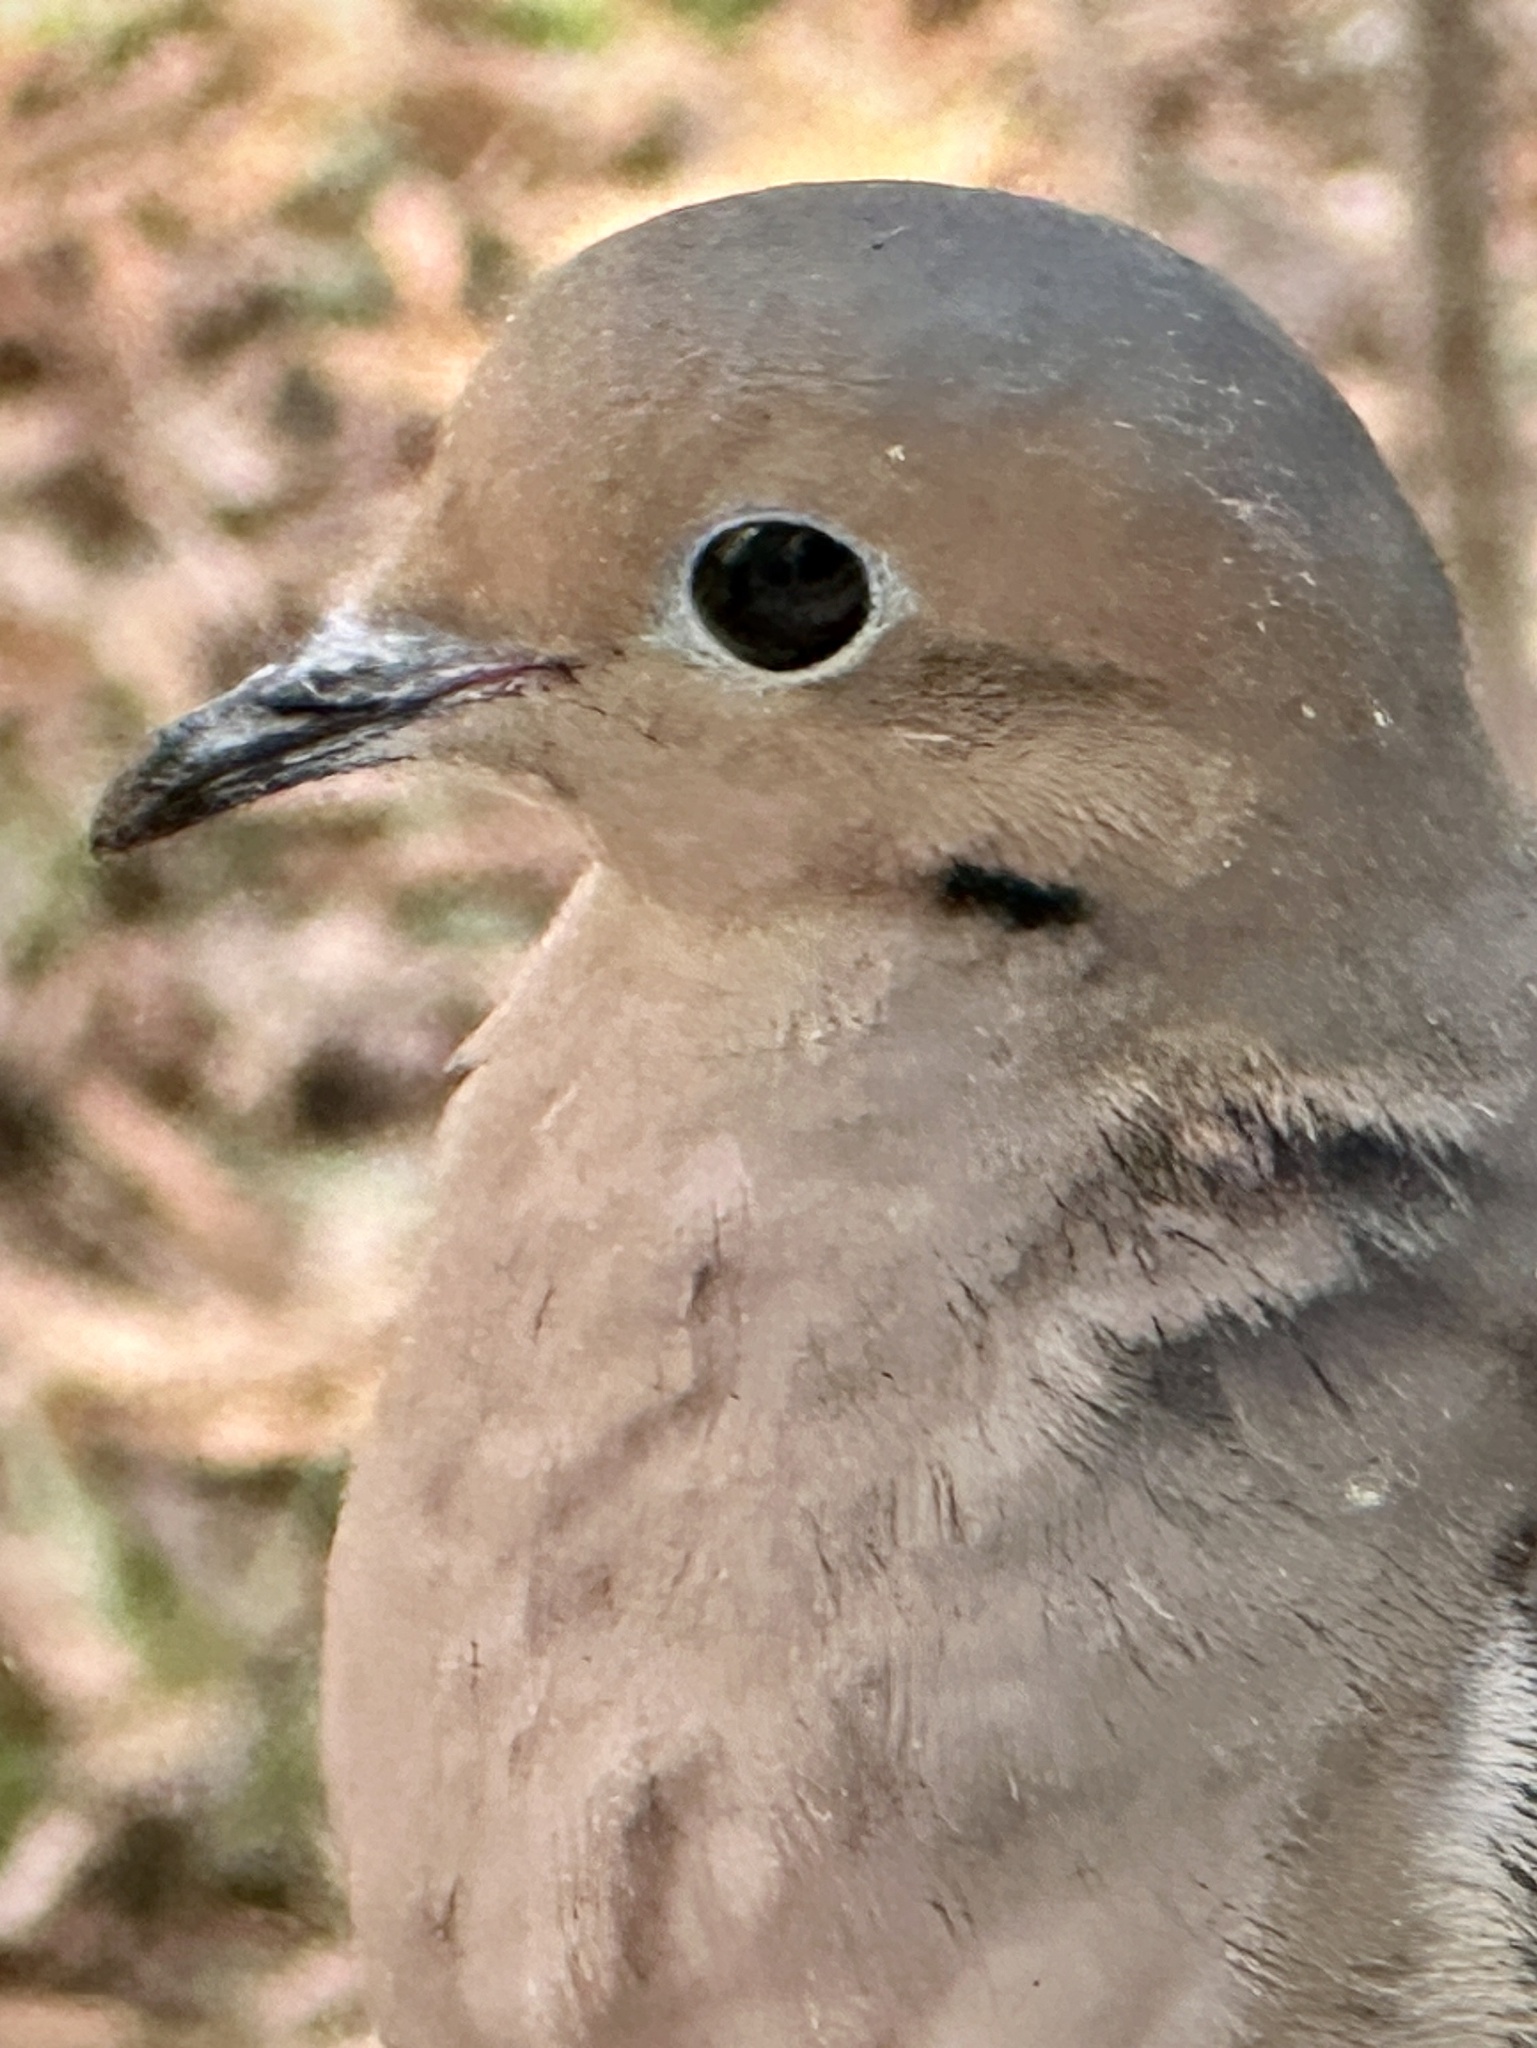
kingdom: Animalia
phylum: Chordata
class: Aves
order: Columbiformes
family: Columbidae
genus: Zenaida
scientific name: Zenaida macroura
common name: Mourning dove
